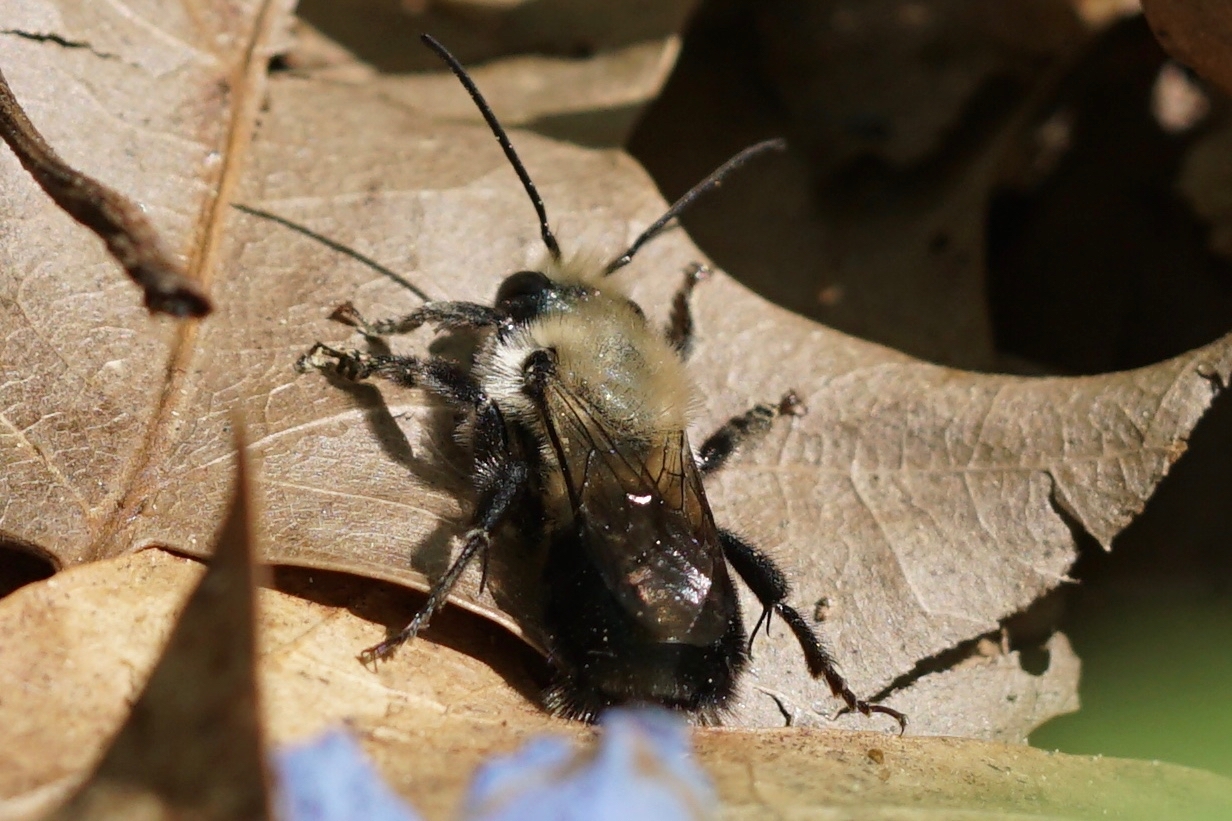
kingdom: Animalia
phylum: Arthropoda
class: Insecta
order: Hymenoptera
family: Megachilidae
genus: Osmia
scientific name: Osmia bucephala
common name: Bufflehead mason bee
